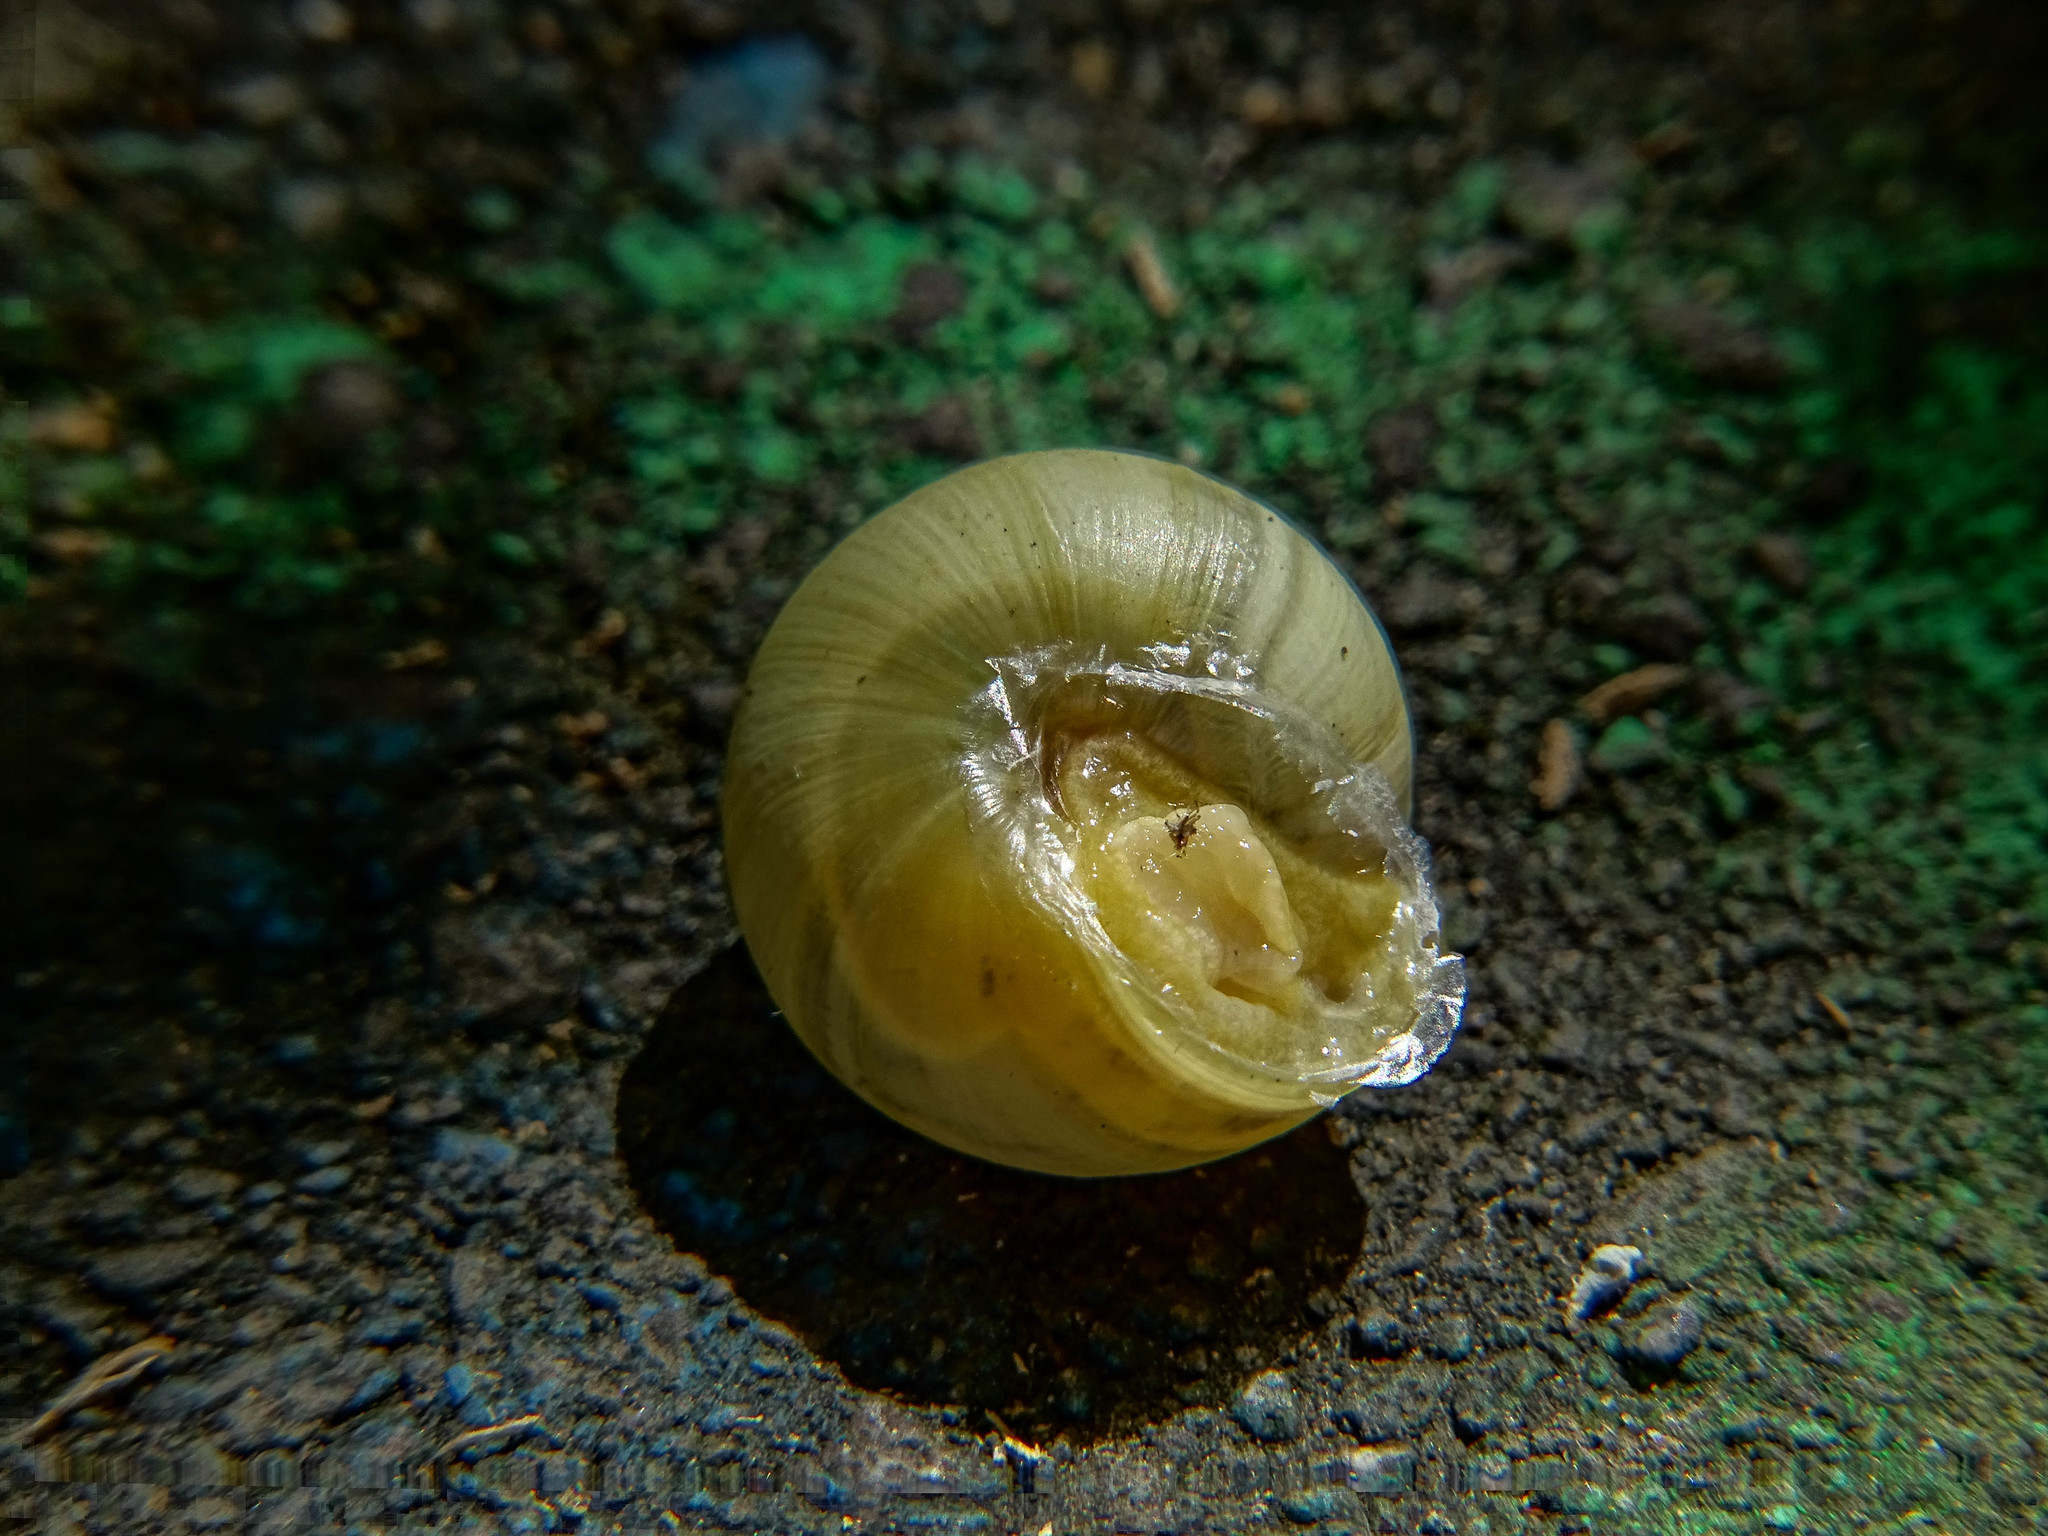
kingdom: Animalia
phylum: Mollusca
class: Gastropoda
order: Stylommatophora
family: Helicidae
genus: Cepaea
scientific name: Cepaea nemoralis
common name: Grovesnail
